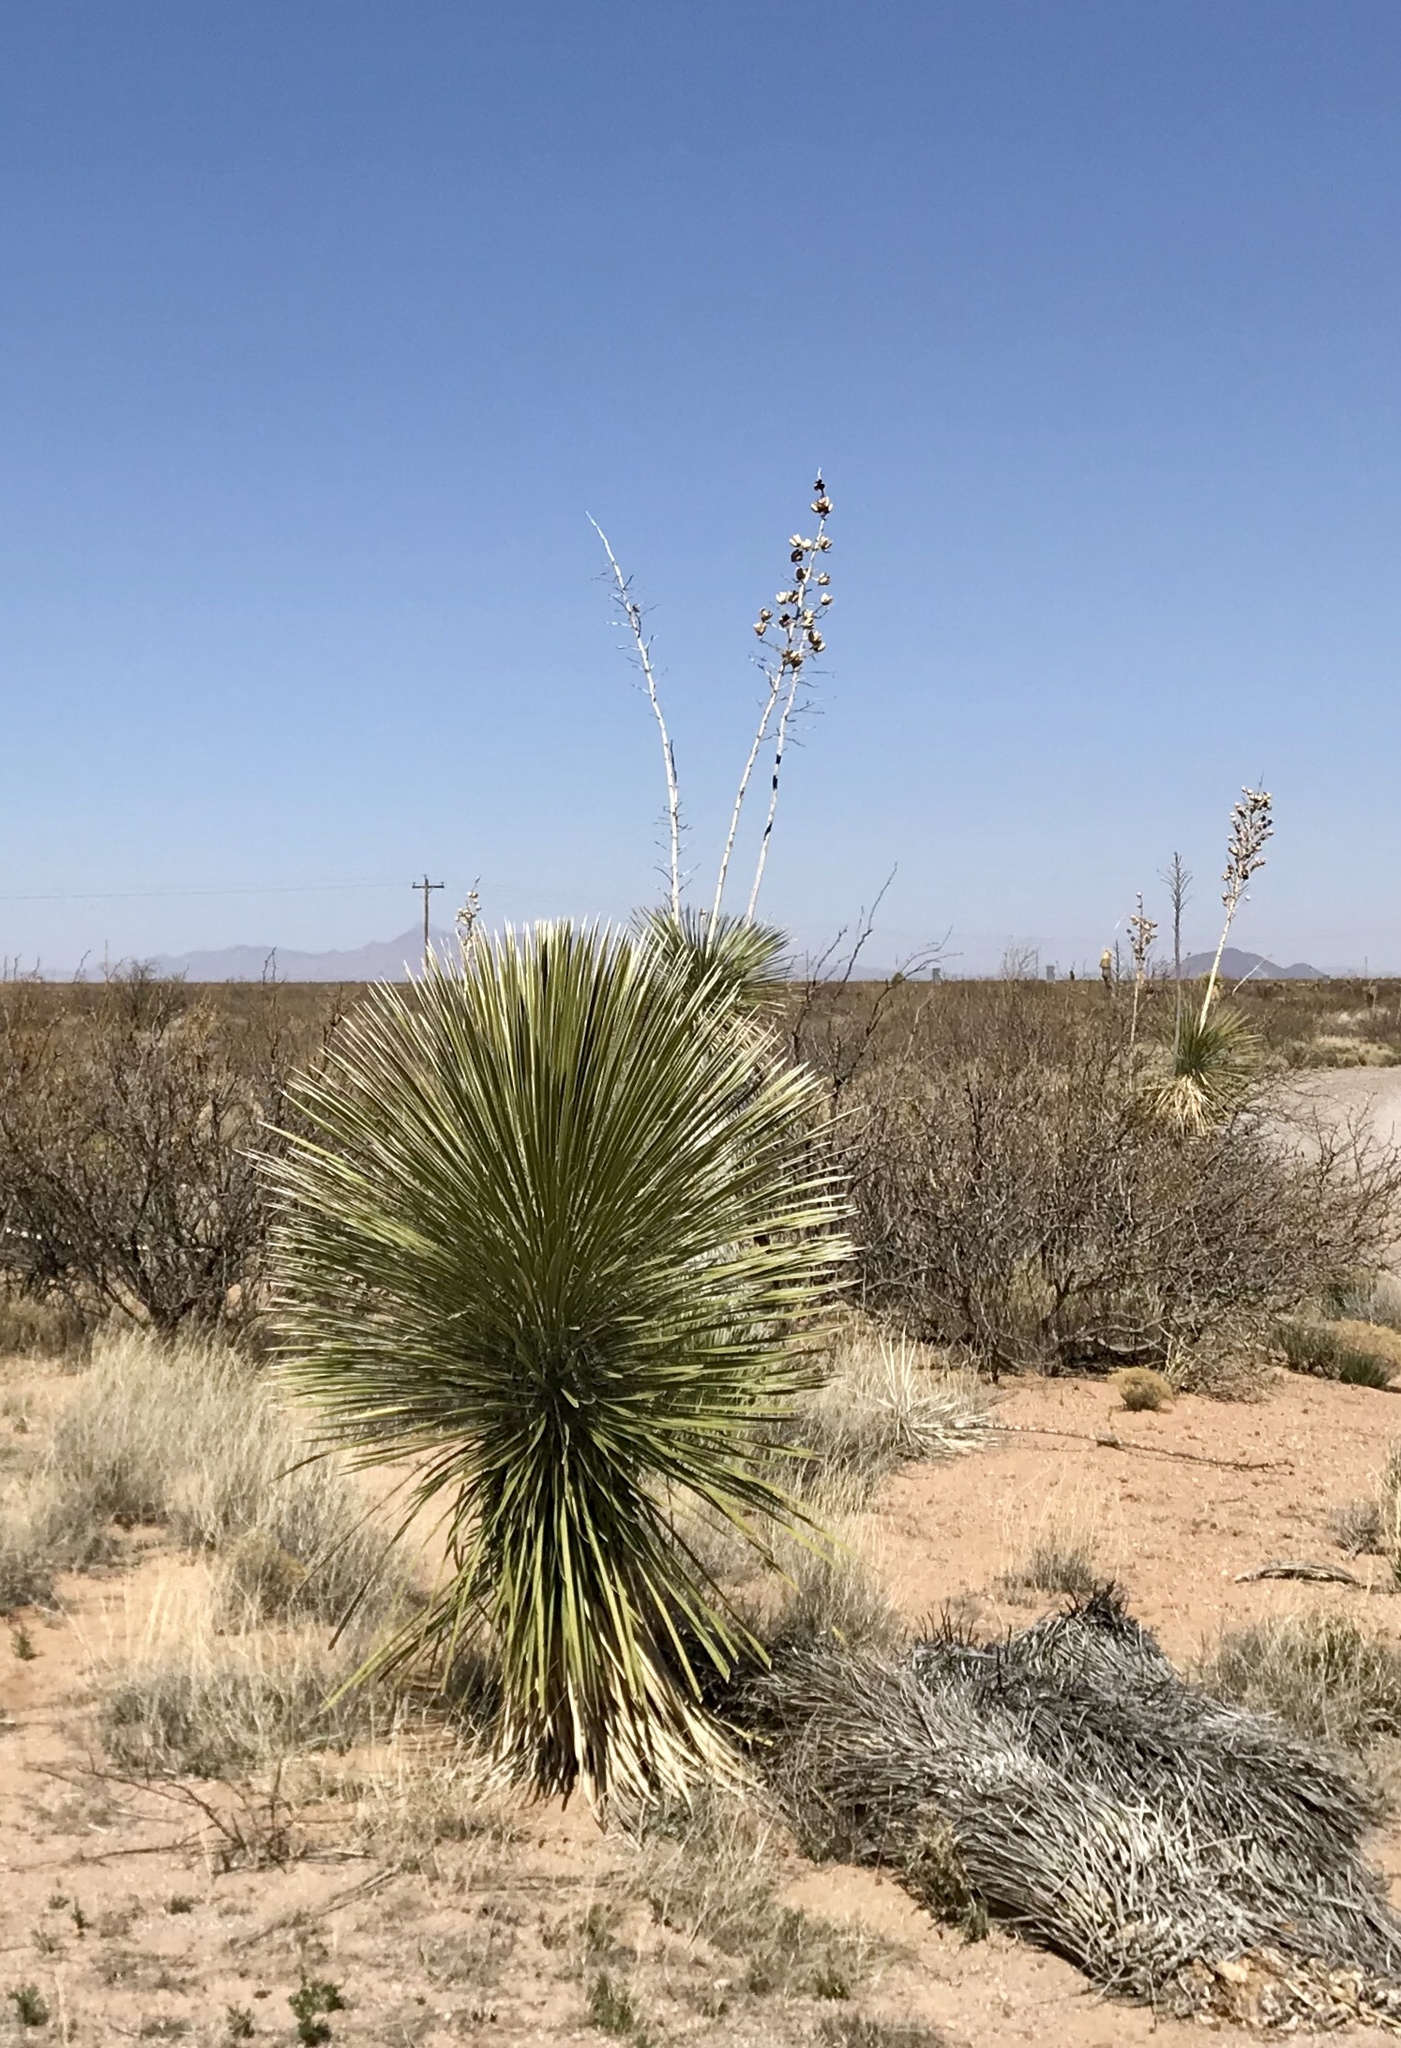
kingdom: Plantae
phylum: Tracheophyta
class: Liliopsida
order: Asparagales
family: Asparagaceae
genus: Yucca
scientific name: Yucca elata
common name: Palmella
